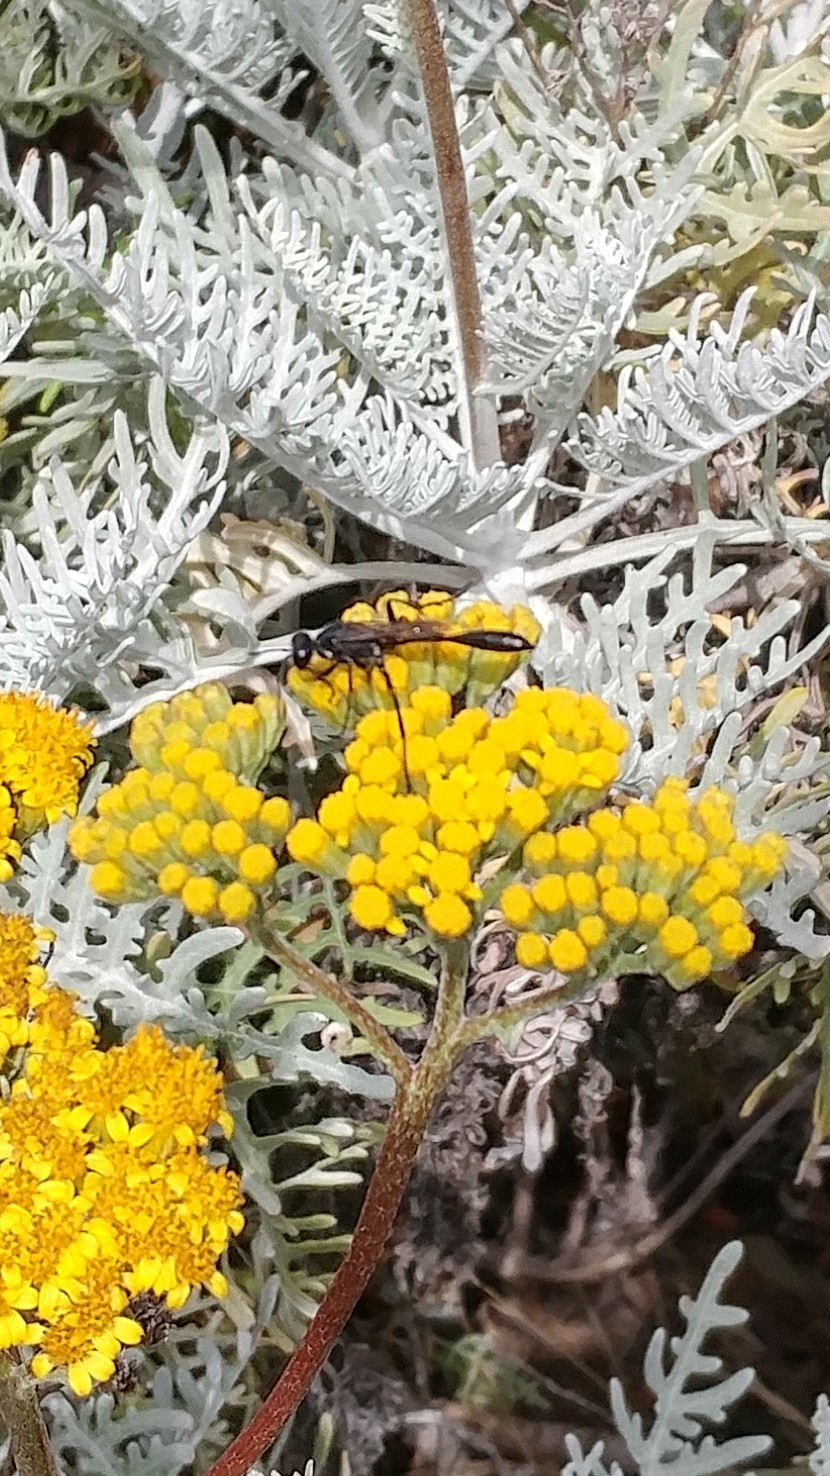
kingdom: Animalia
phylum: Arthropoda
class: Insecta
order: Hymenoptera
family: Sphecidae
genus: Ammophila
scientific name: Ammophila azteca
